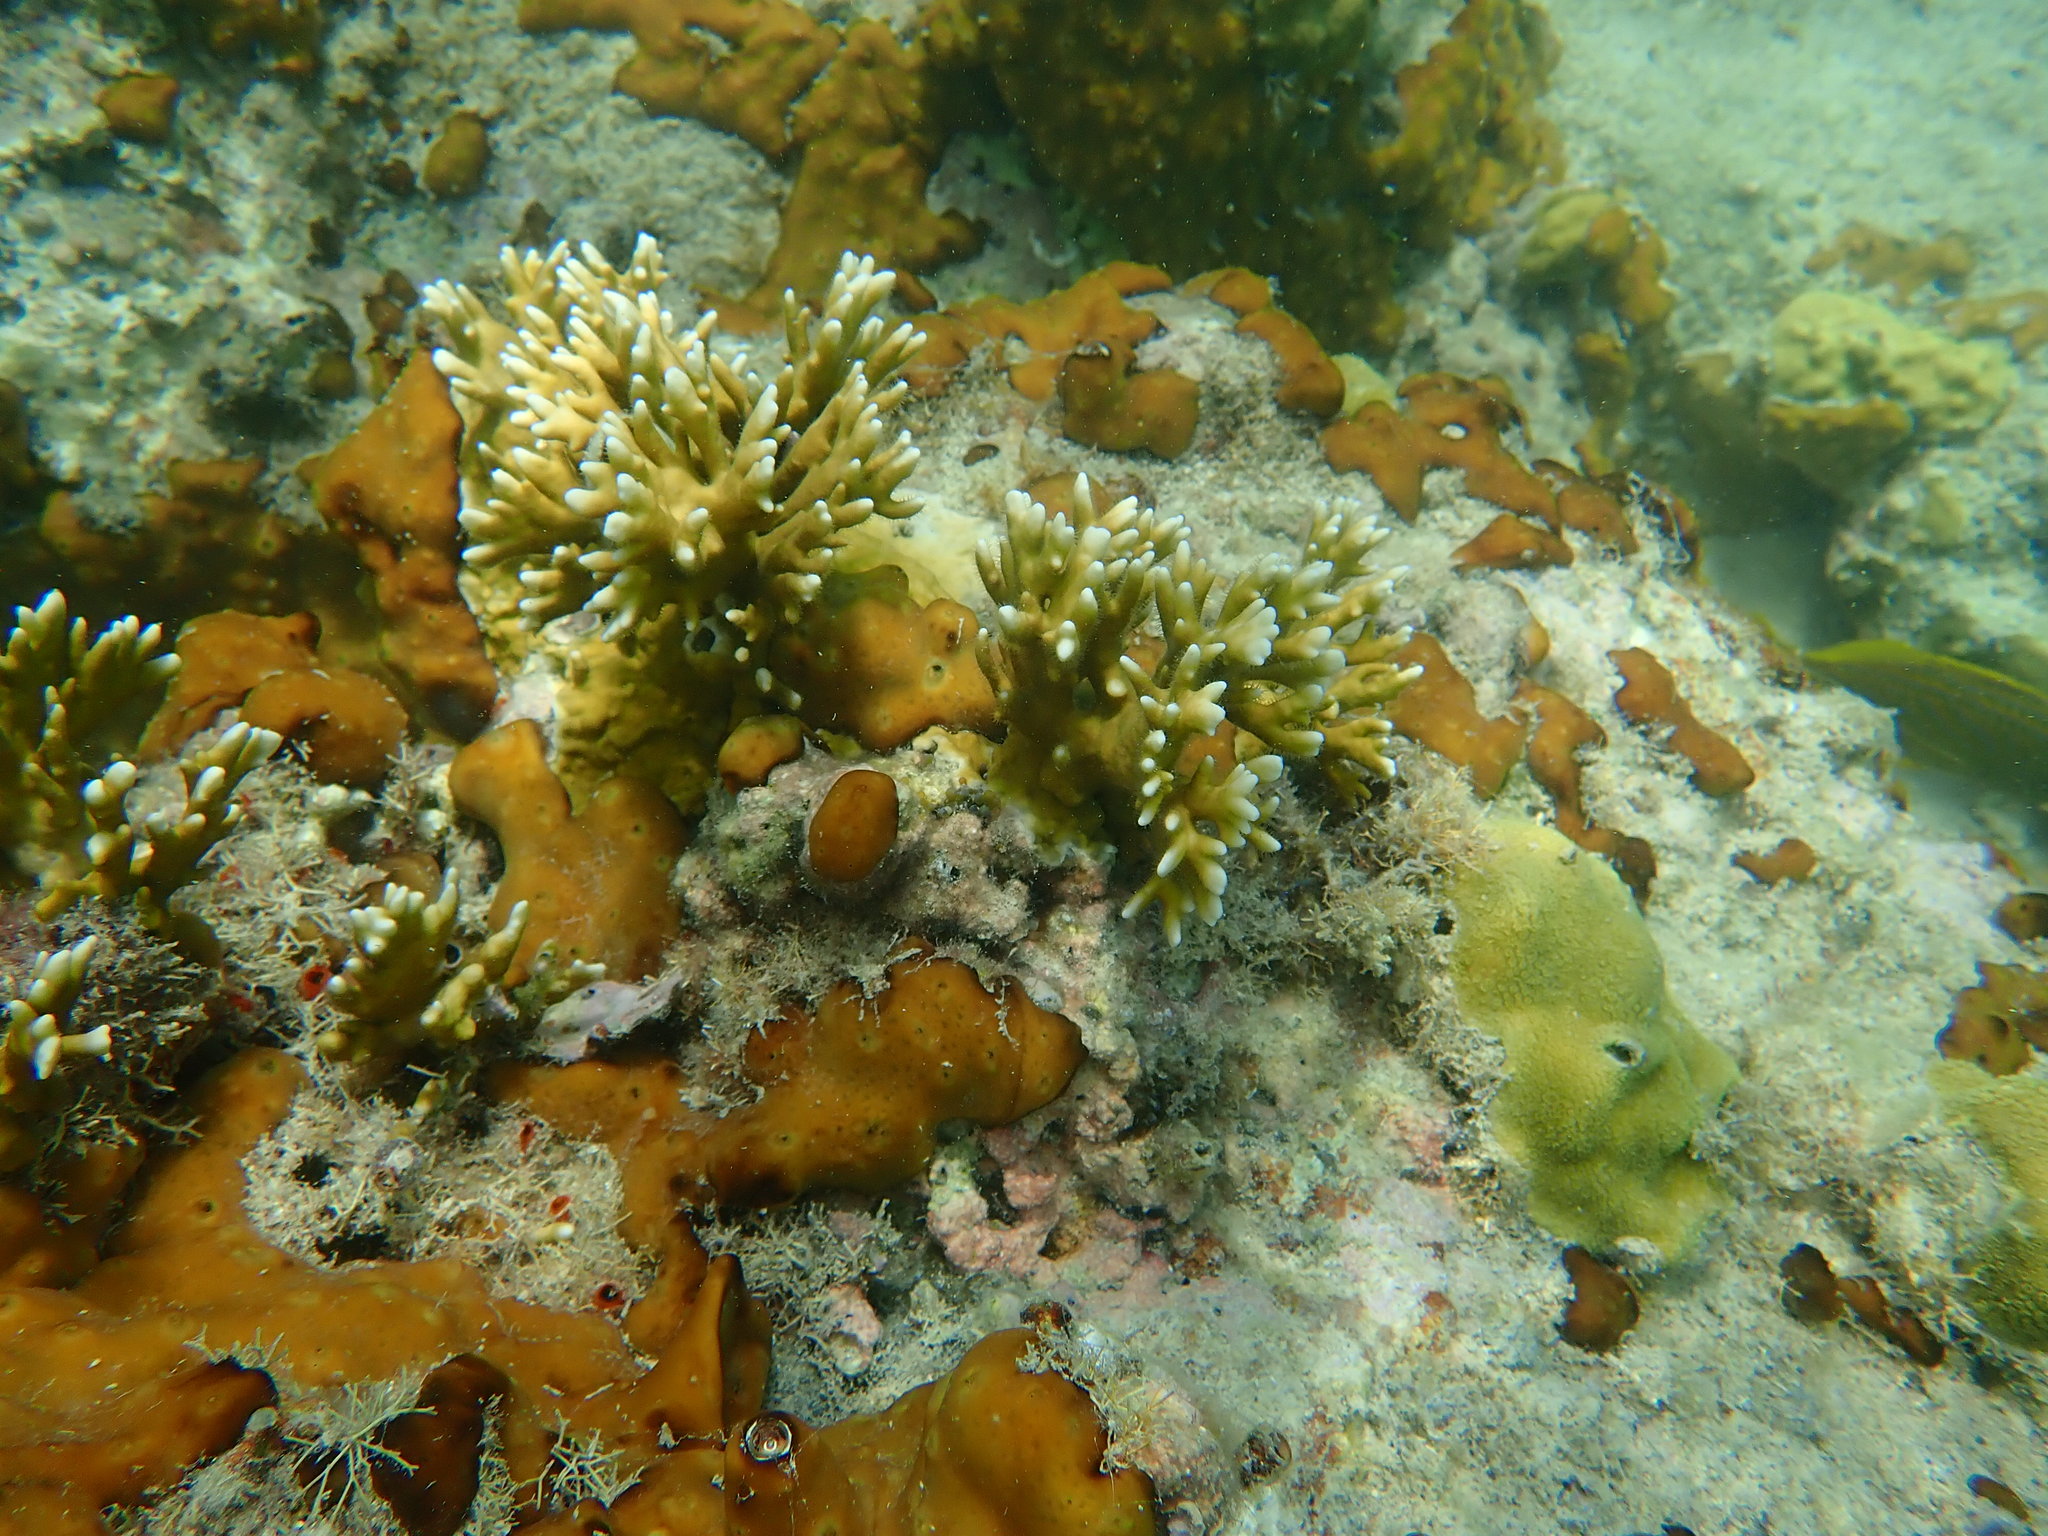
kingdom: Animalia
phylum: Porifera
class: Demospongiae
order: Chondrillida
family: Chondrillidae
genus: Chondrilla
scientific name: Chondrilla caribensis
